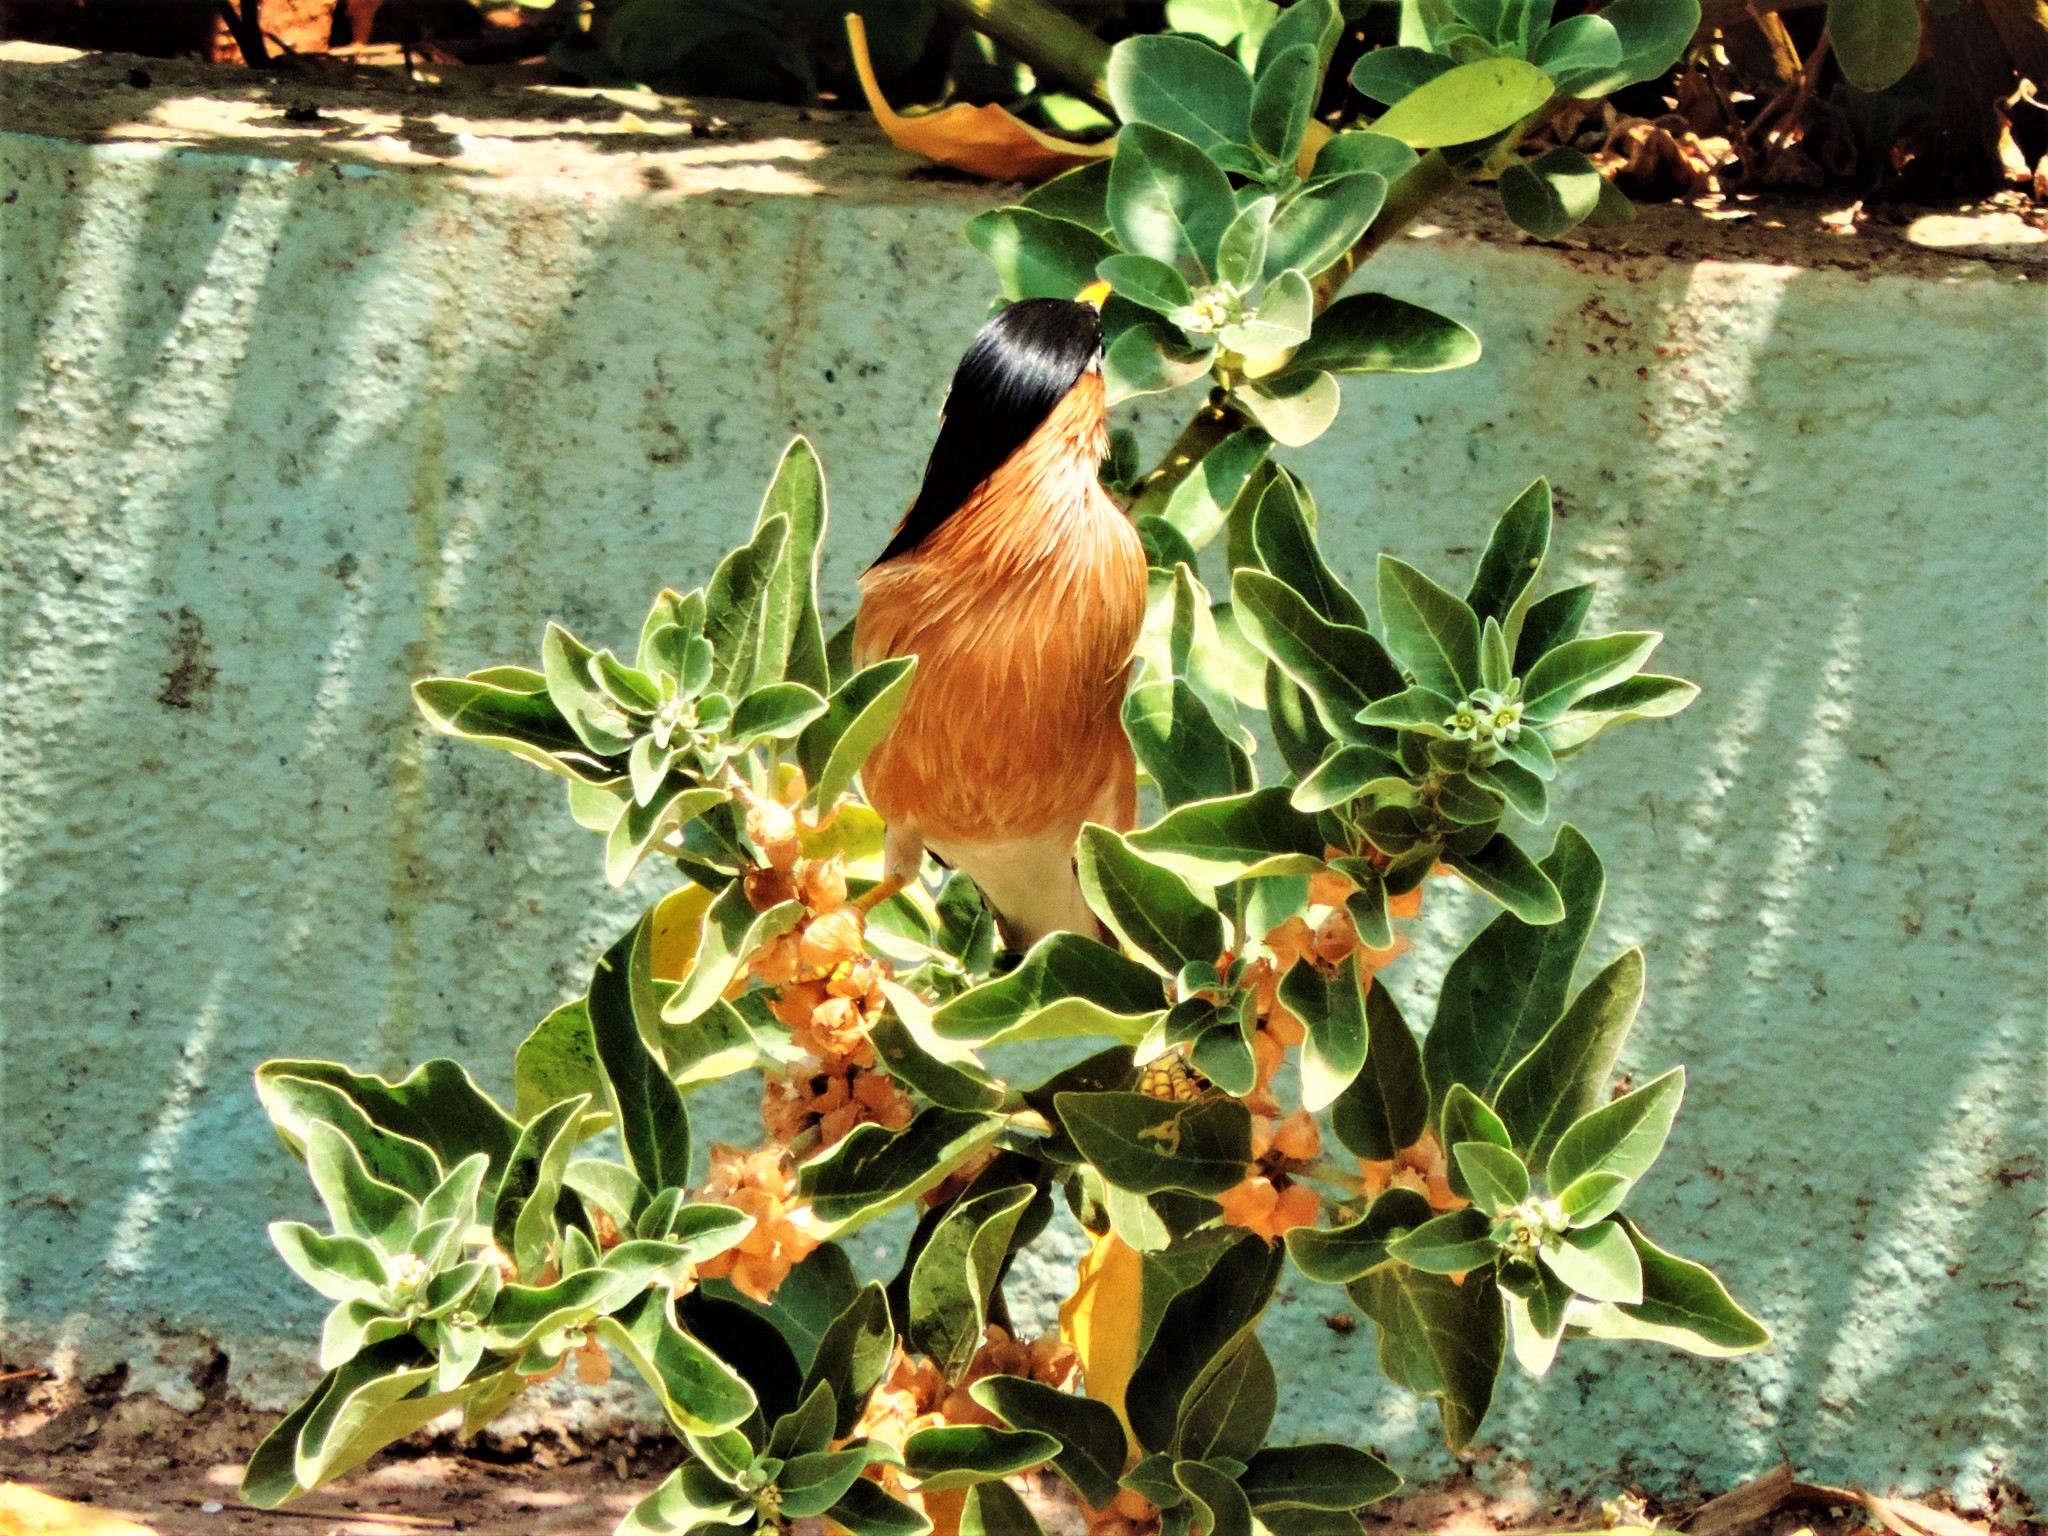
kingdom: Animalia
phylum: Chordata
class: Aves
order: Passeriformes
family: Sturnidae
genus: Sturnia
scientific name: Sturnia pagodarum
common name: Brahminy starling
